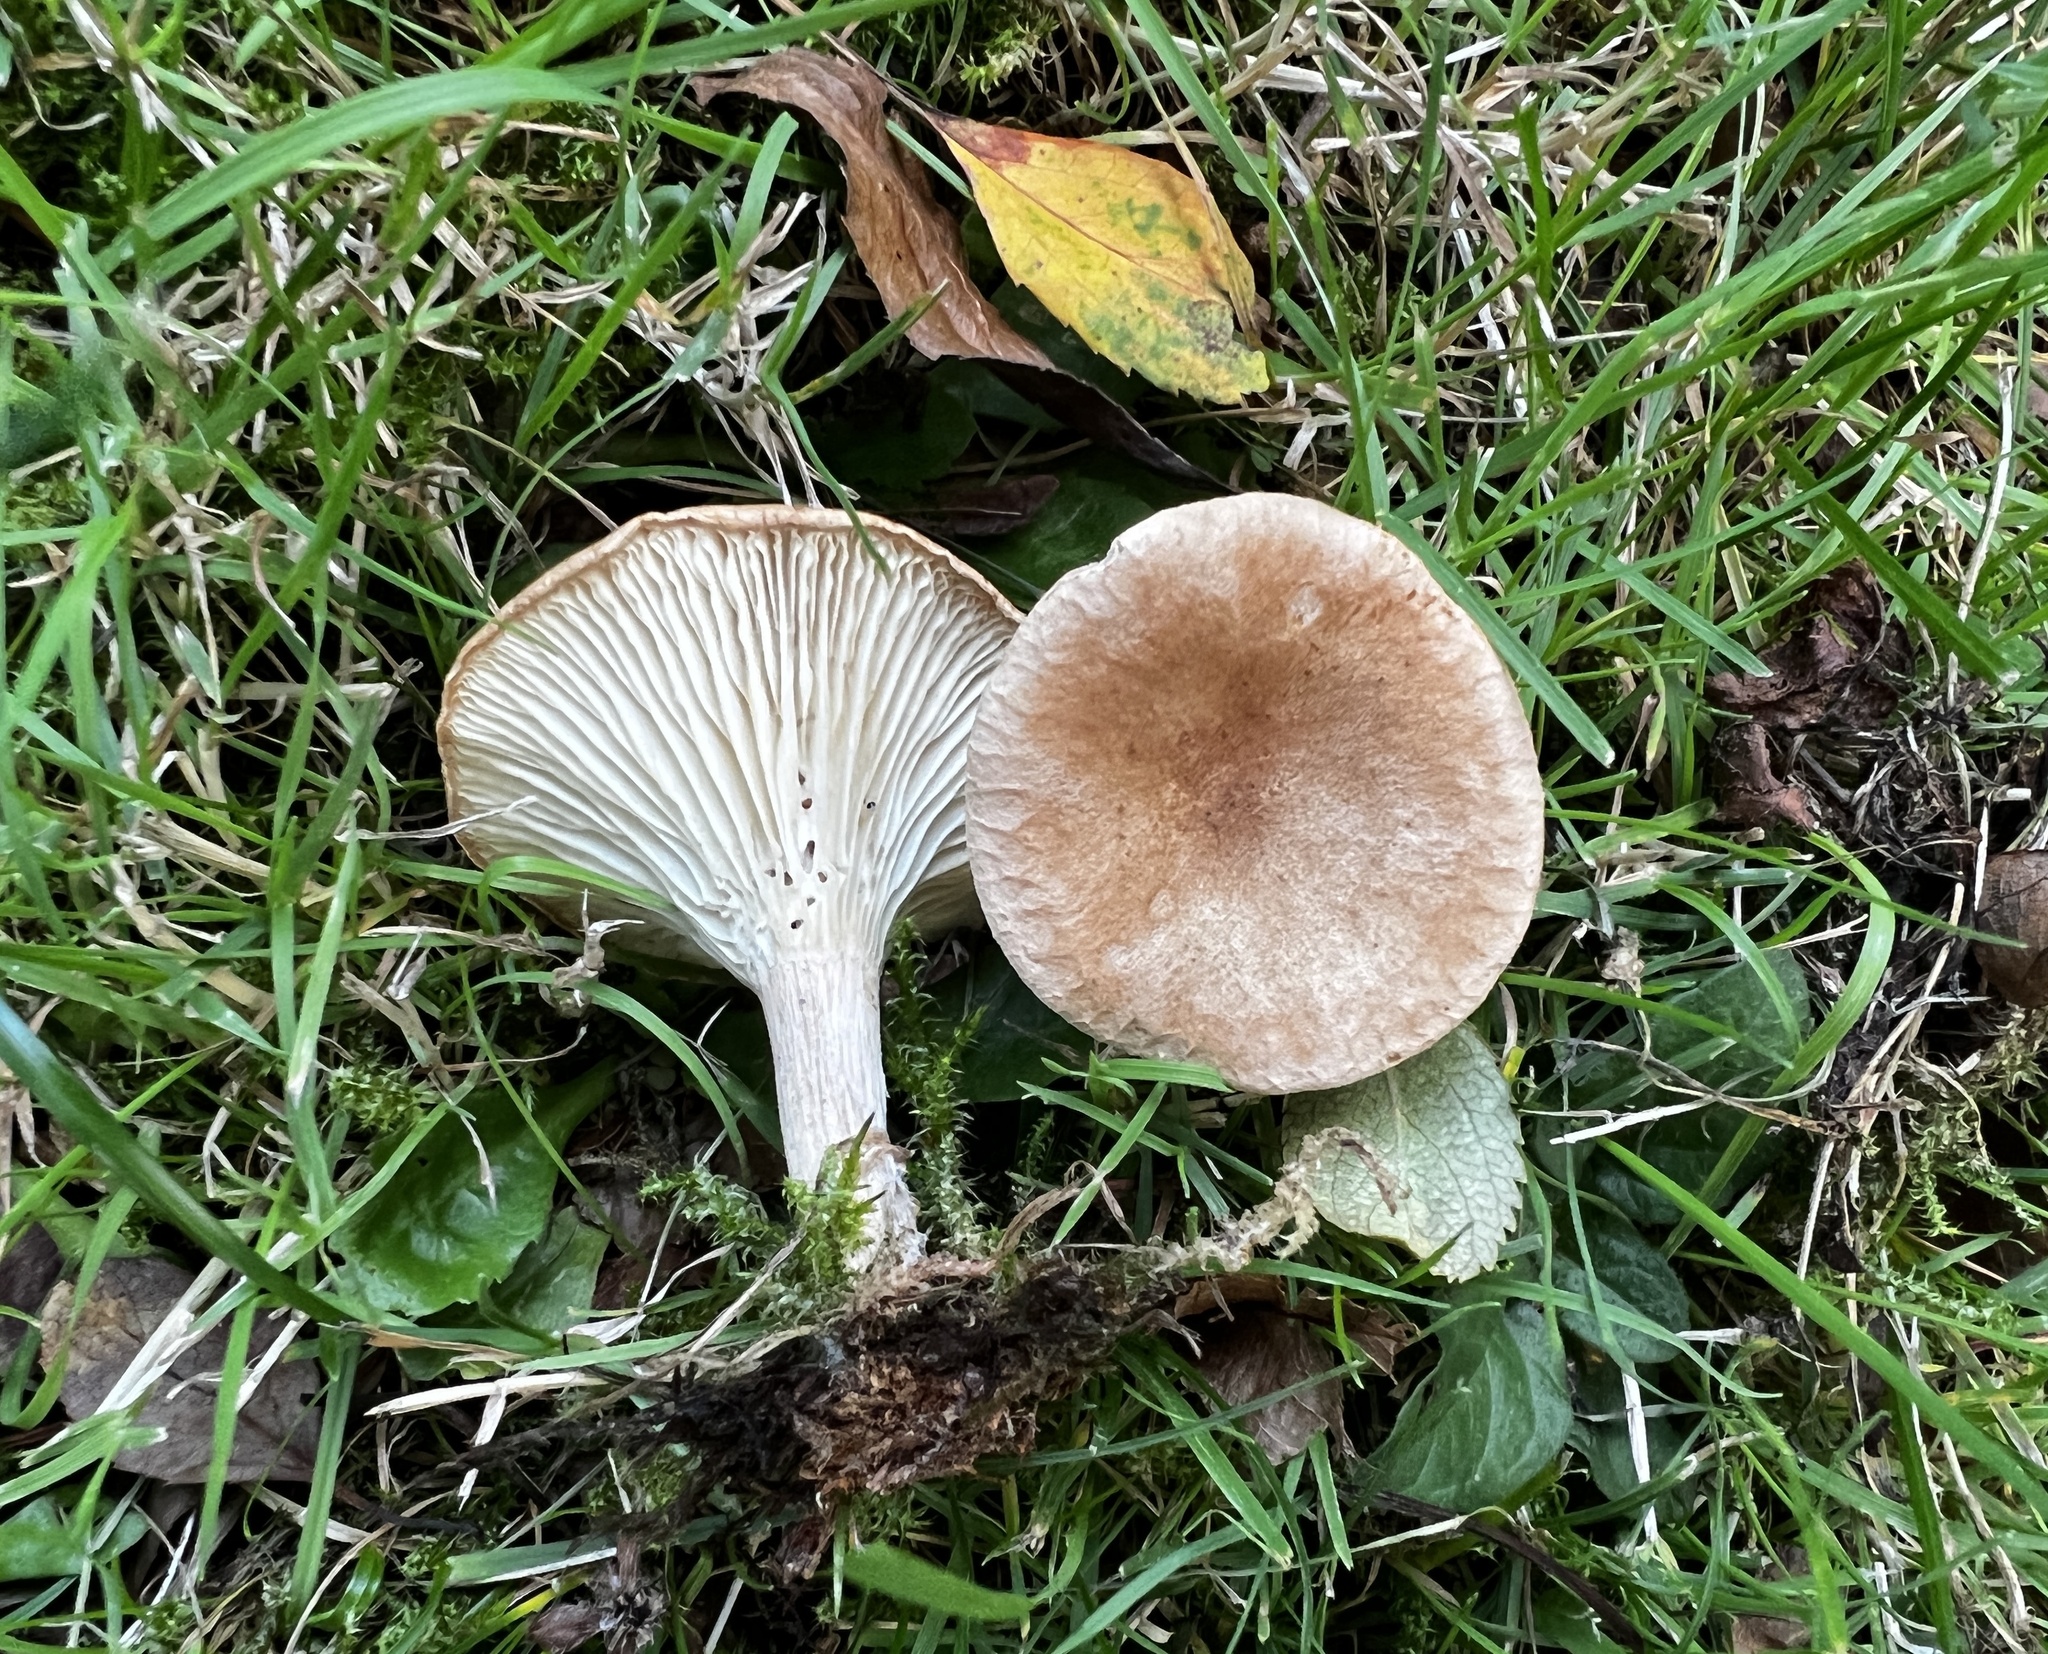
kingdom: Fungi
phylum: Basidiomycota
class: Agaricomycetes
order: Agaricales
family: Tricholomataceae
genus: Infundibulicybe
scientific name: Infundibulicybe gibba
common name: Common funnel
